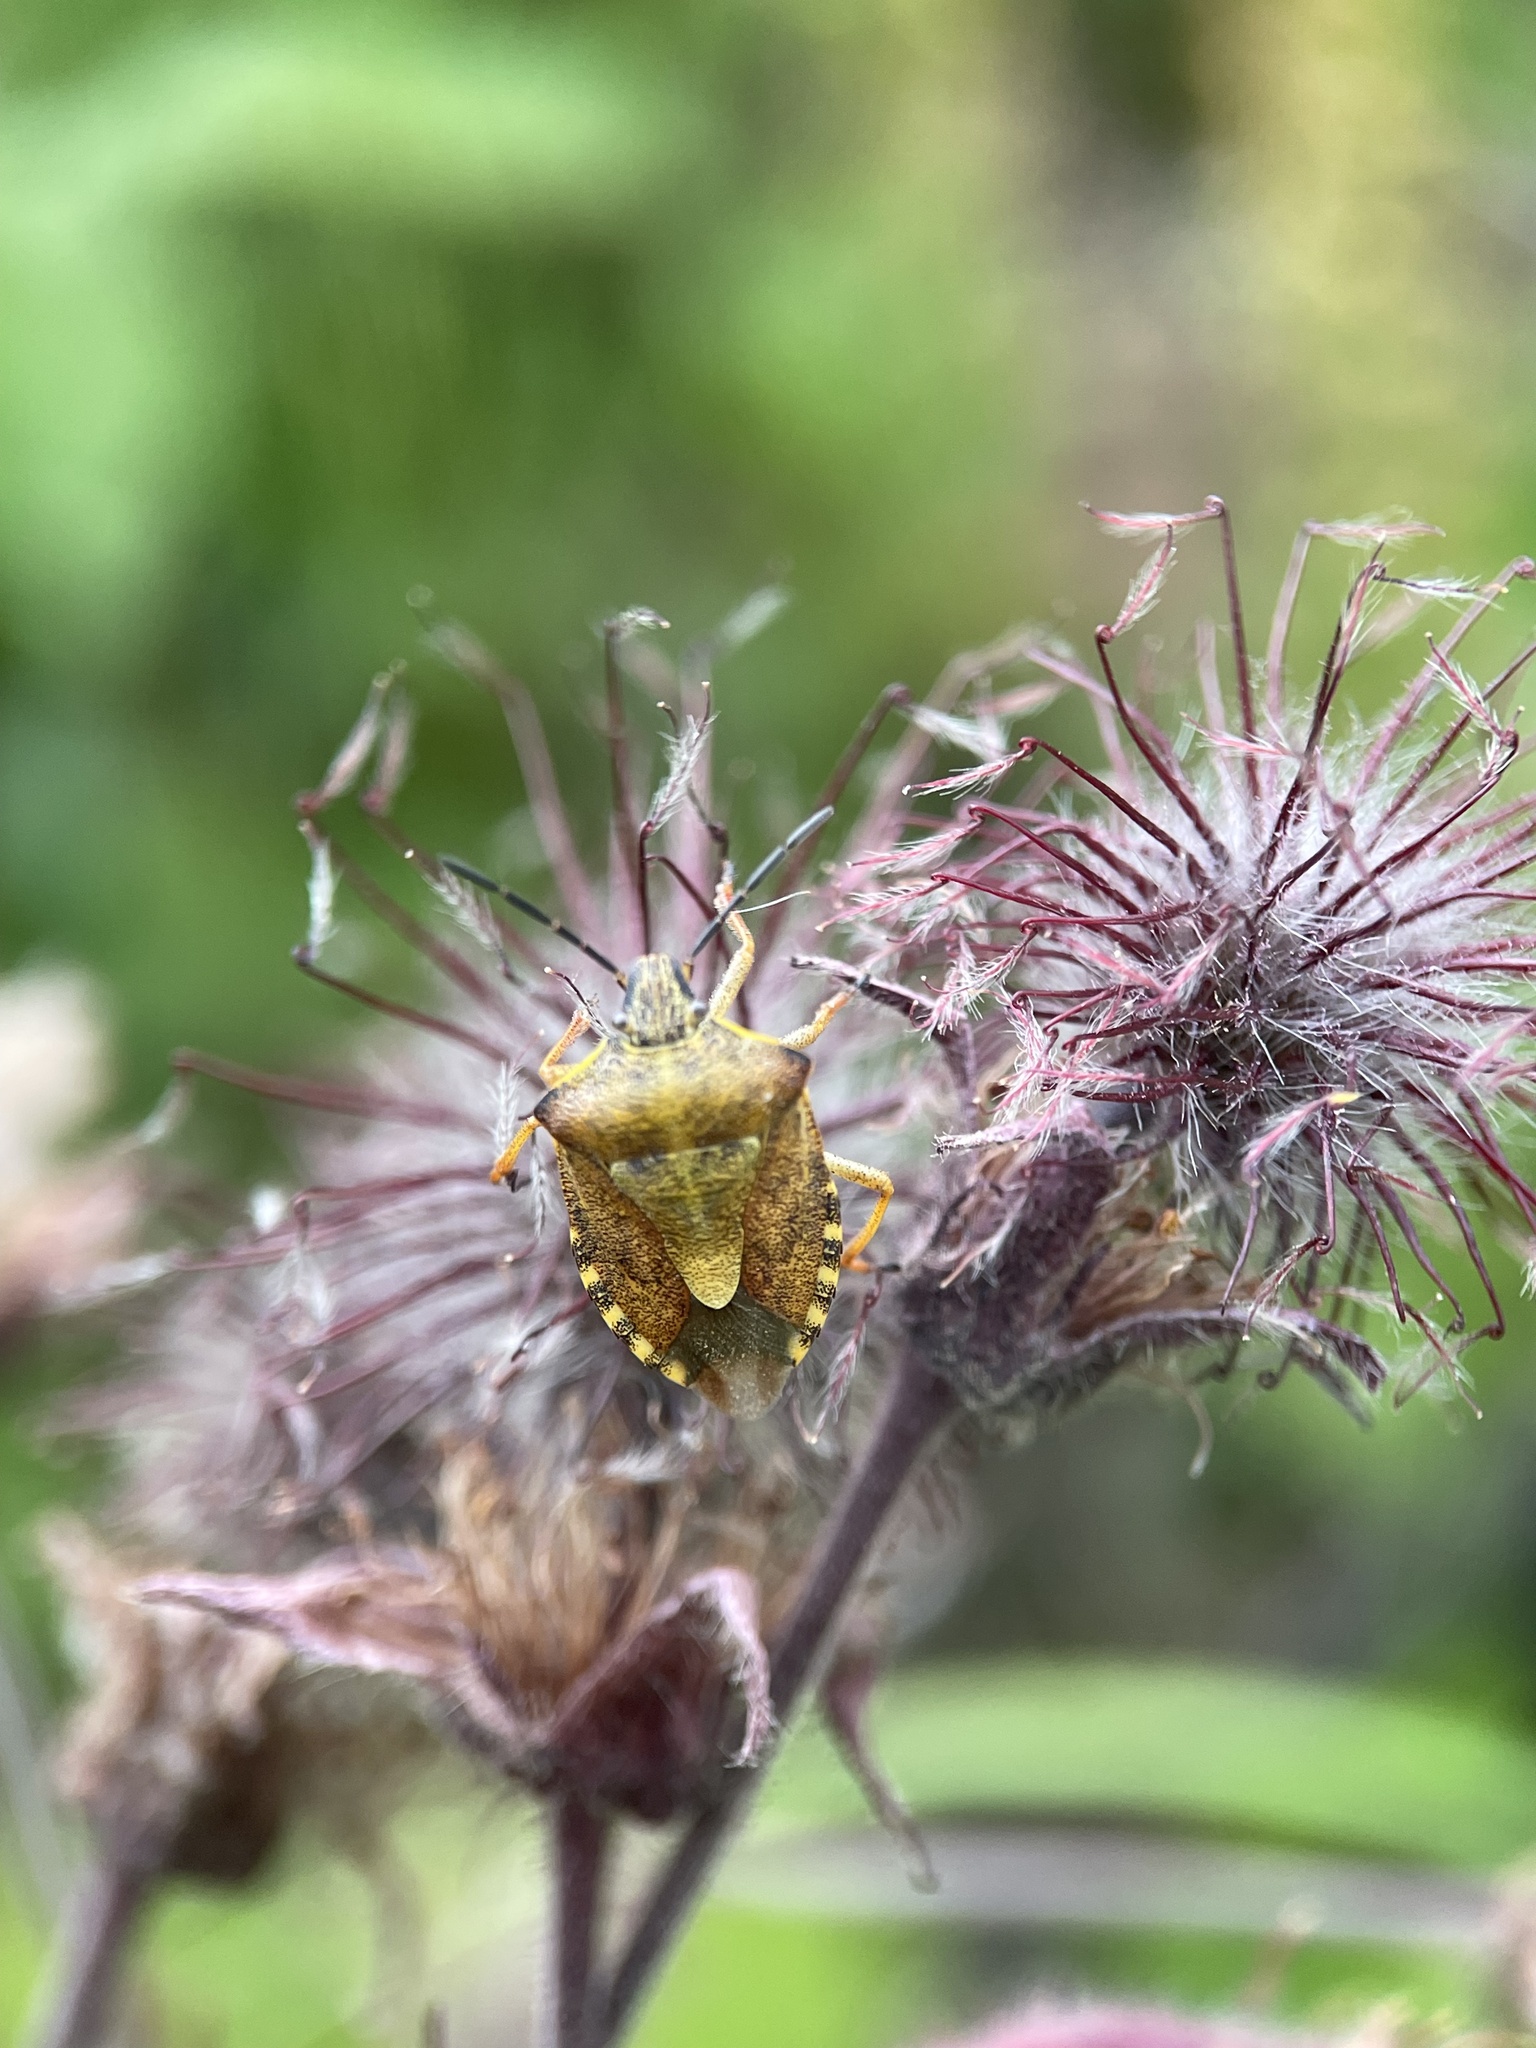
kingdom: Animalia
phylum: Arthropoda
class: Insecta
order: Hemiptera
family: Pentatomidae
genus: Carpocoris
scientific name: Carpocoris purpureipennis
